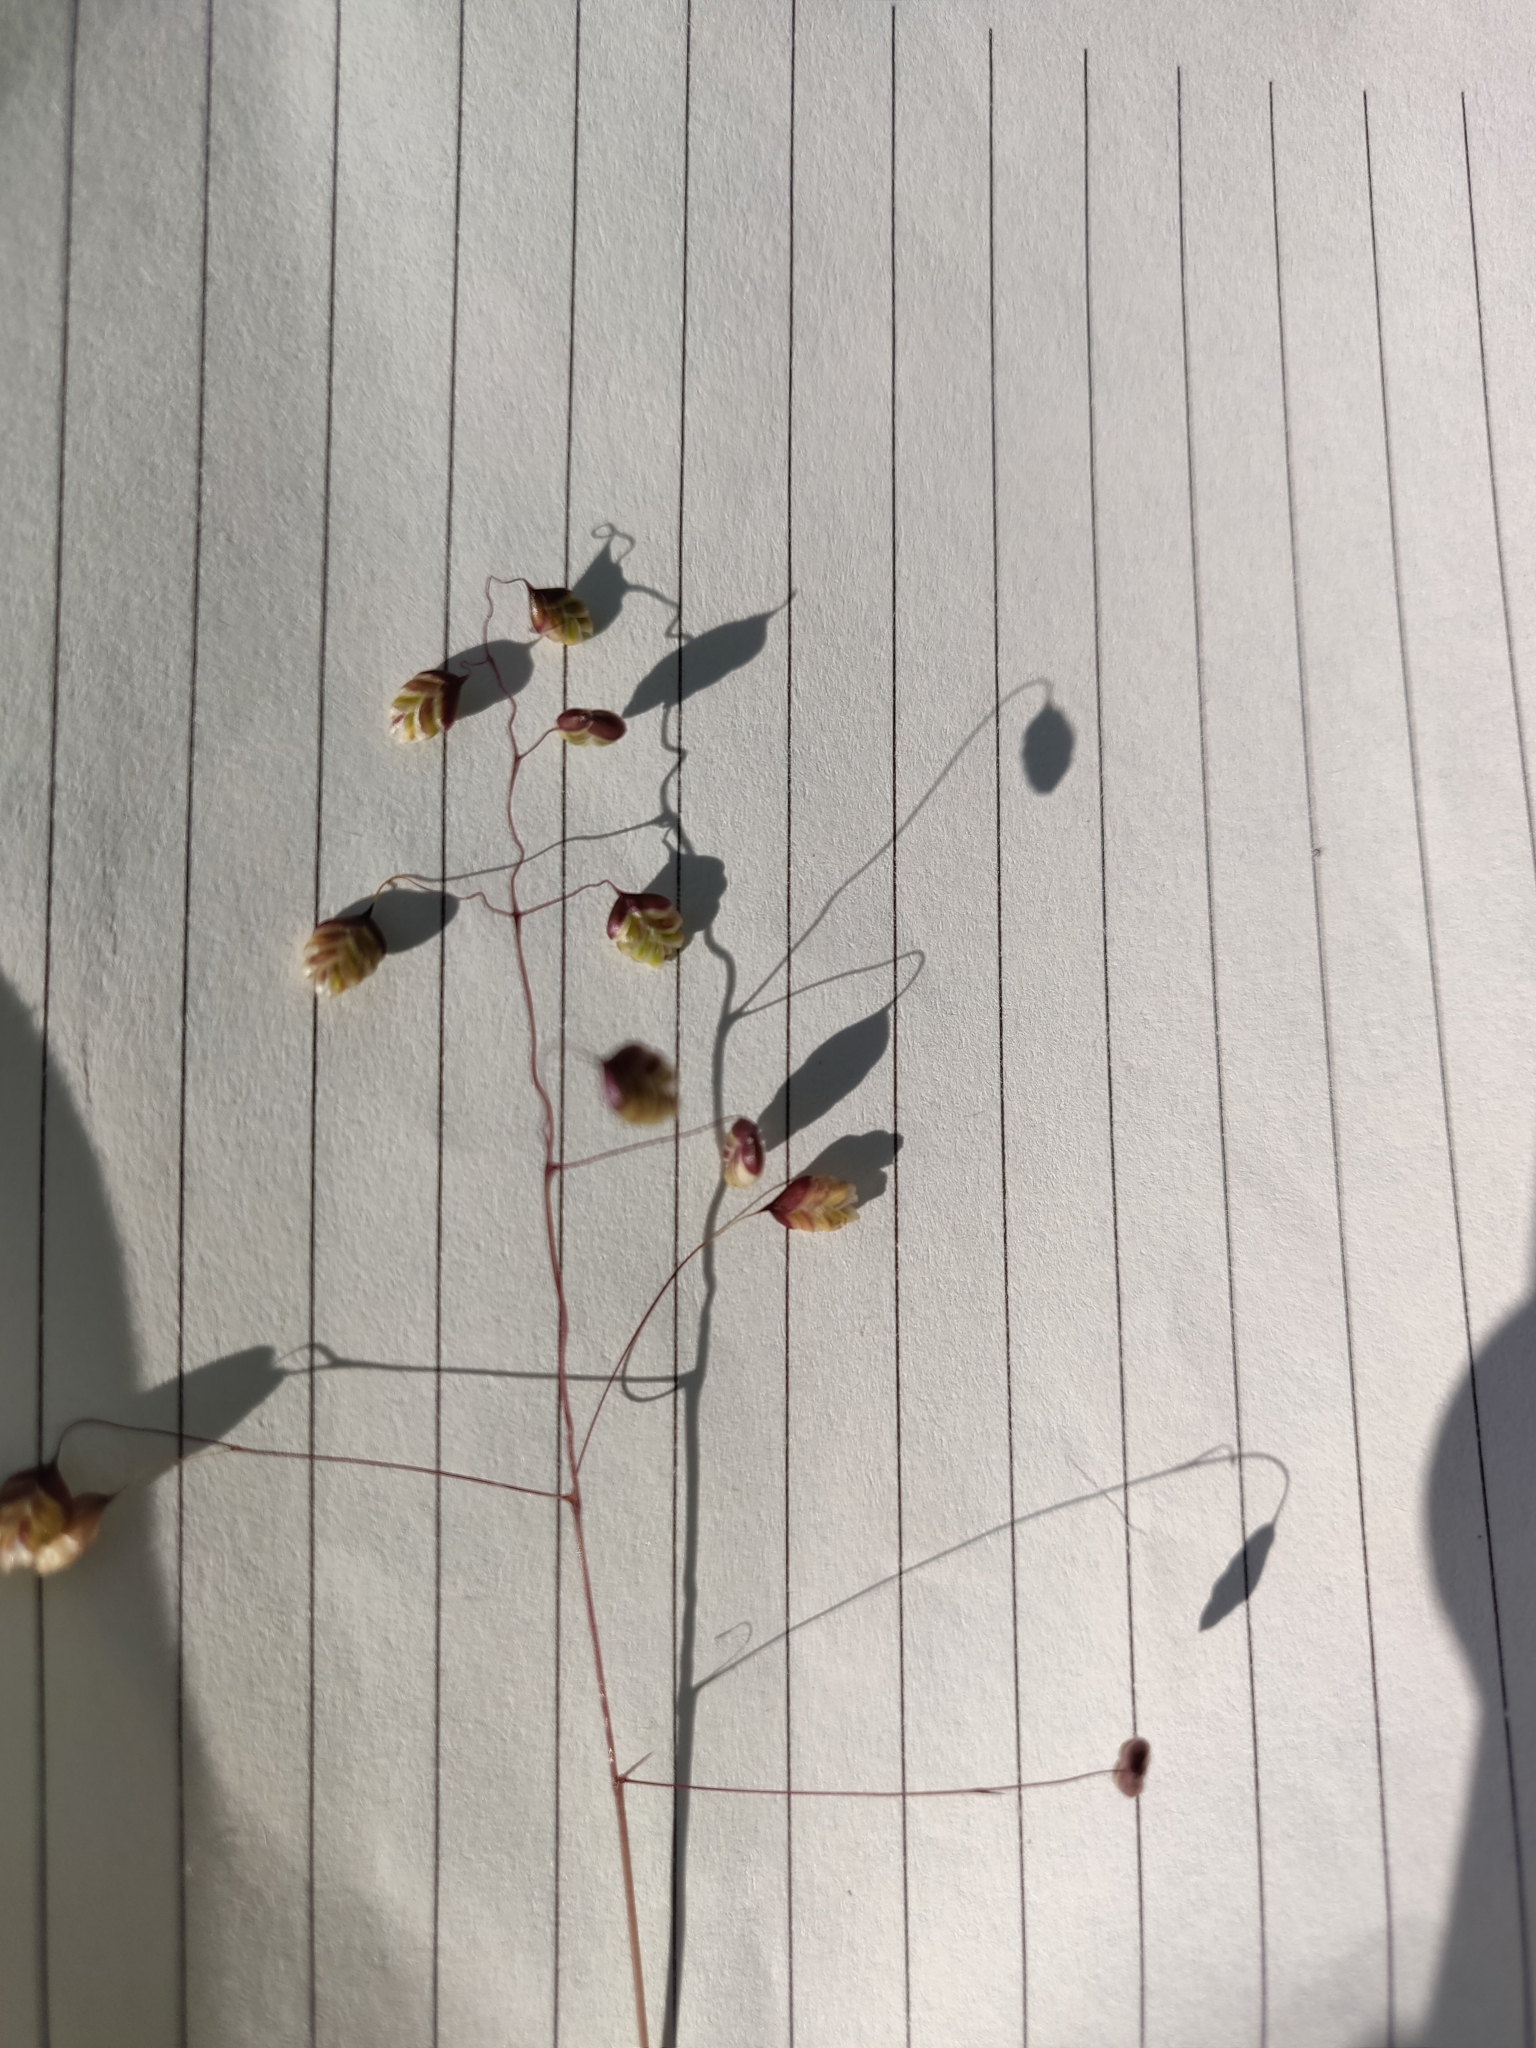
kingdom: Plantae
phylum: Tracheophyta
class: Liliopsida
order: Poales
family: Poaceae
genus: Briza
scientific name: Briza media
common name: Quaking grass
